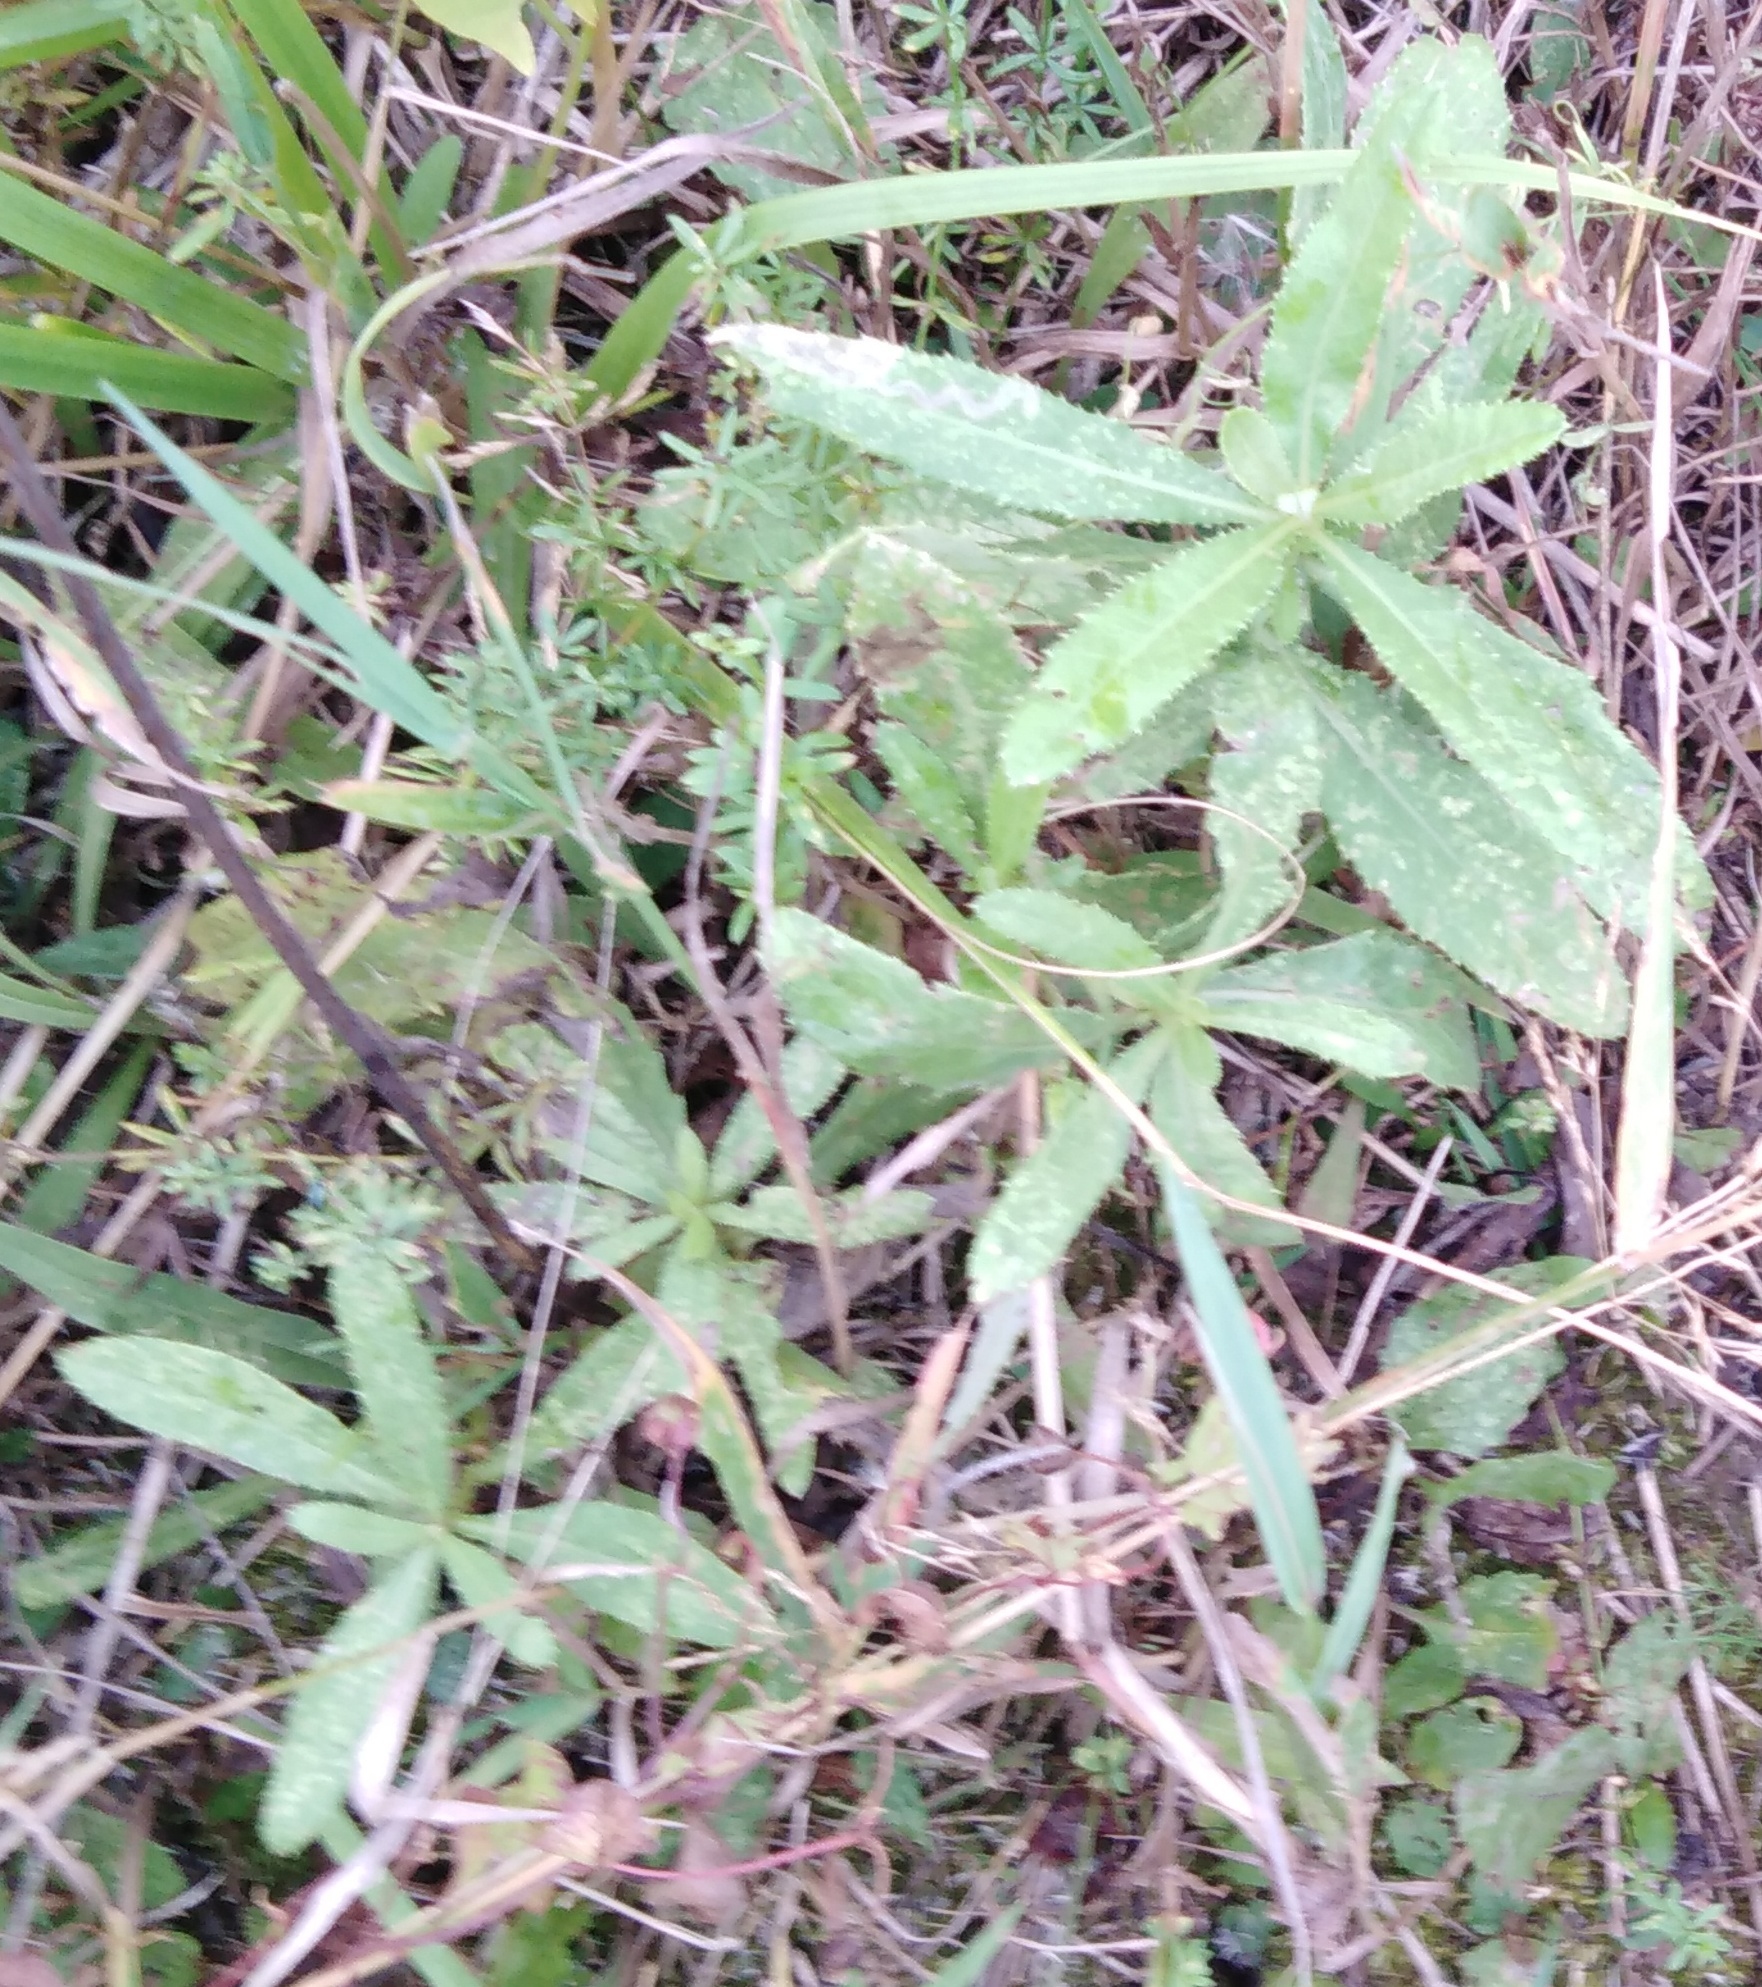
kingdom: Plantae
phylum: Tracheophyta
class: Magnoliopsida
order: Asterales
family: Asteraceae
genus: Cirsium
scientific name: Cirsium arvense
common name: Creeping thistle
